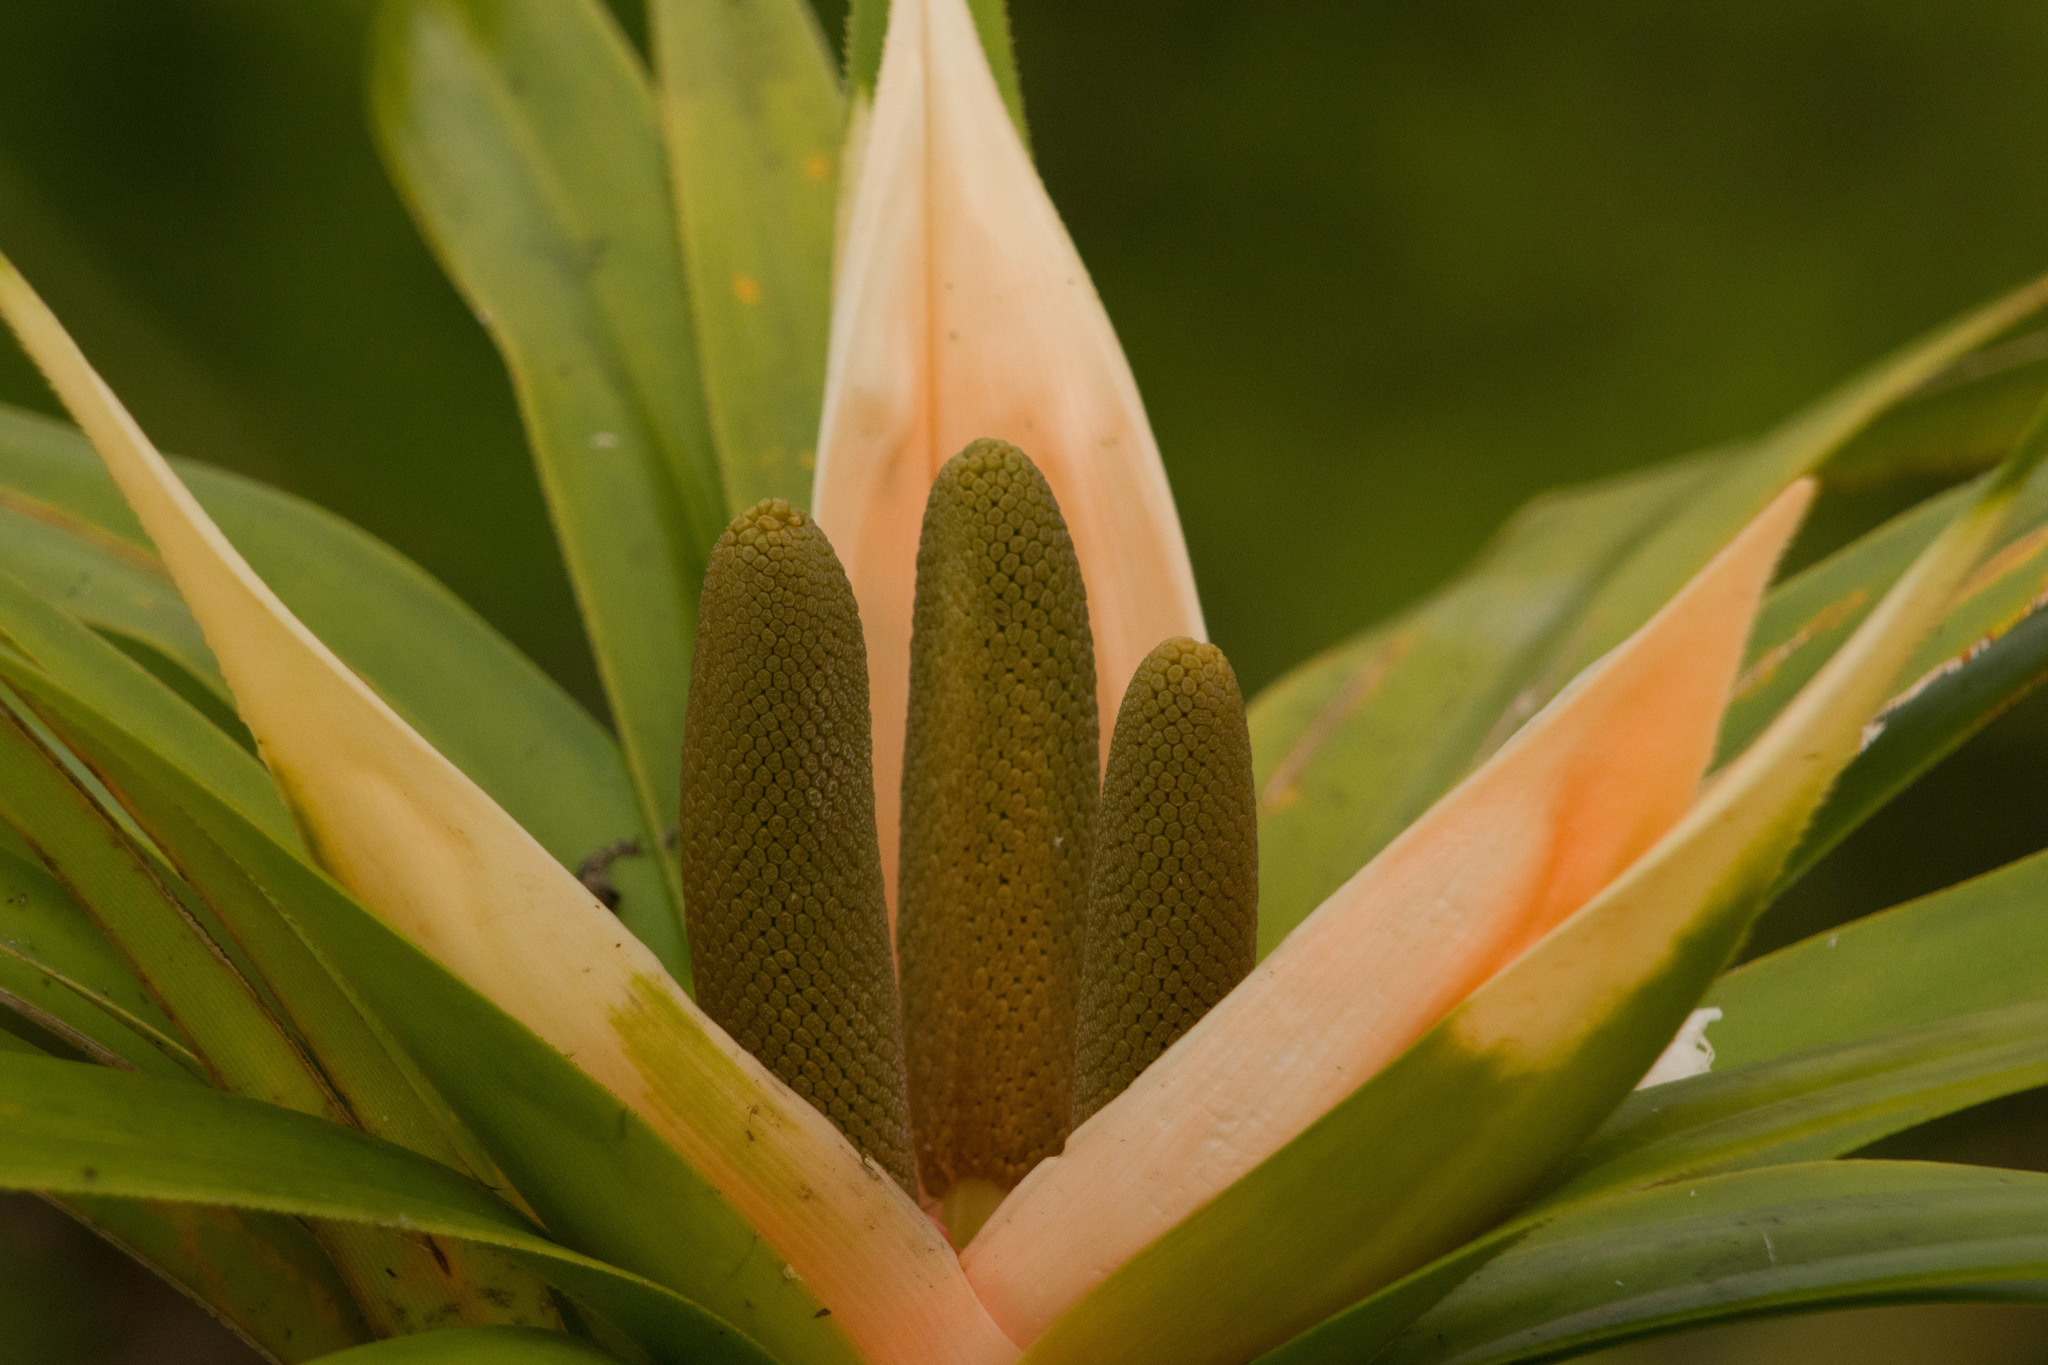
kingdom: Plantae
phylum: Tracheophyta
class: Liliopsida
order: Pandanales
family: Pandanaceae
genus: Freycinetia
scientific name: Freycinetia arborea
